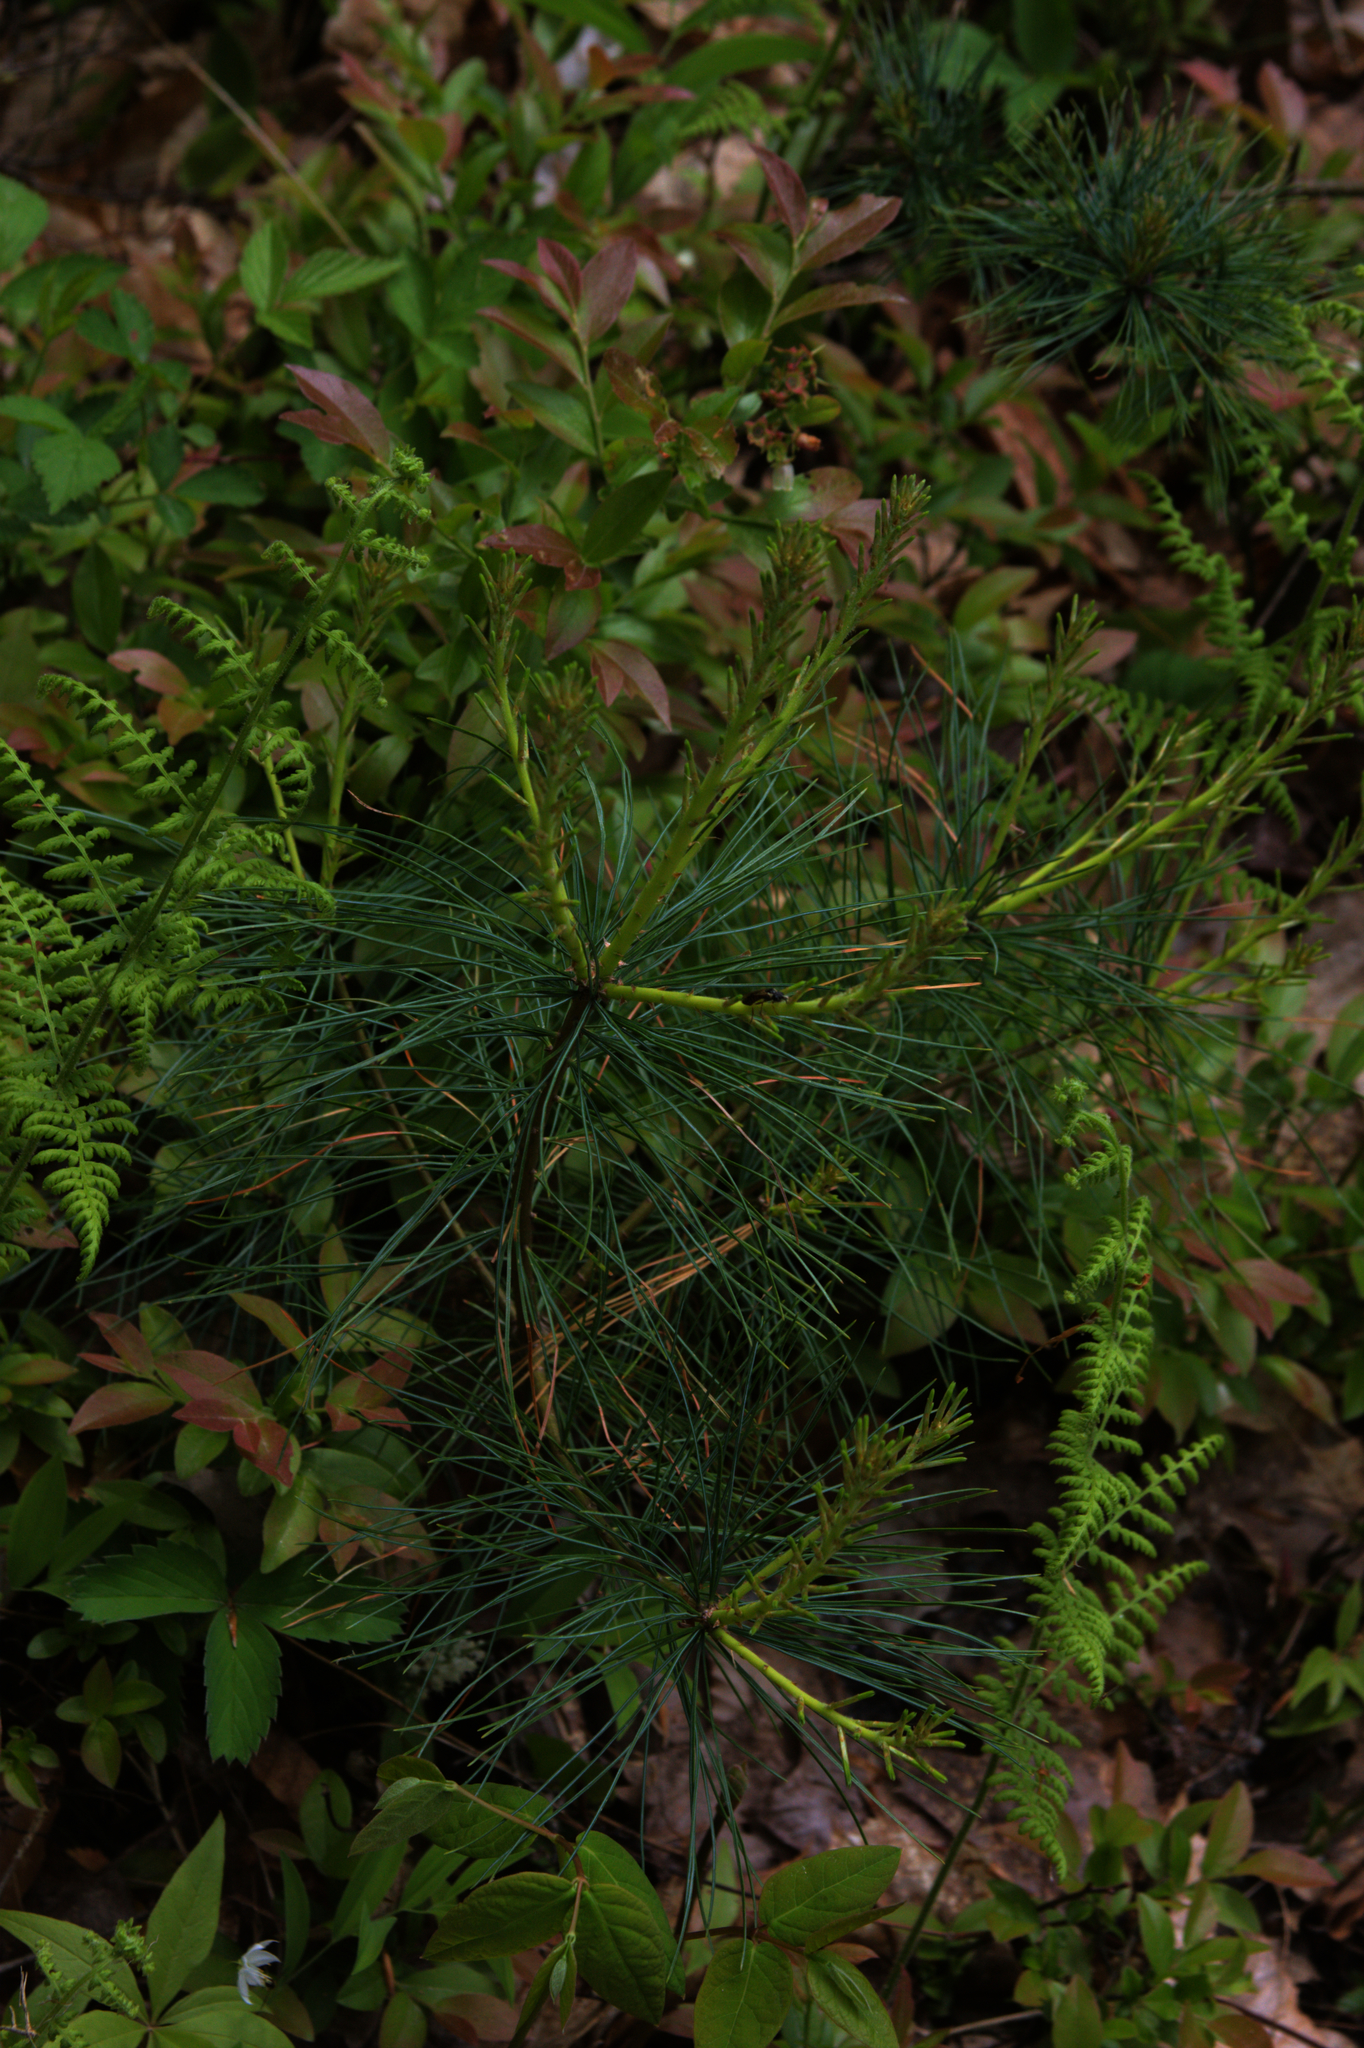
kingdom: Plantae
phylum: Tracheophyta
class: Pinopsida
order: Pinales
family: Pinaceae
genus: Pinus
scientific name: Pinus strobus
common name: Weymouth pine
